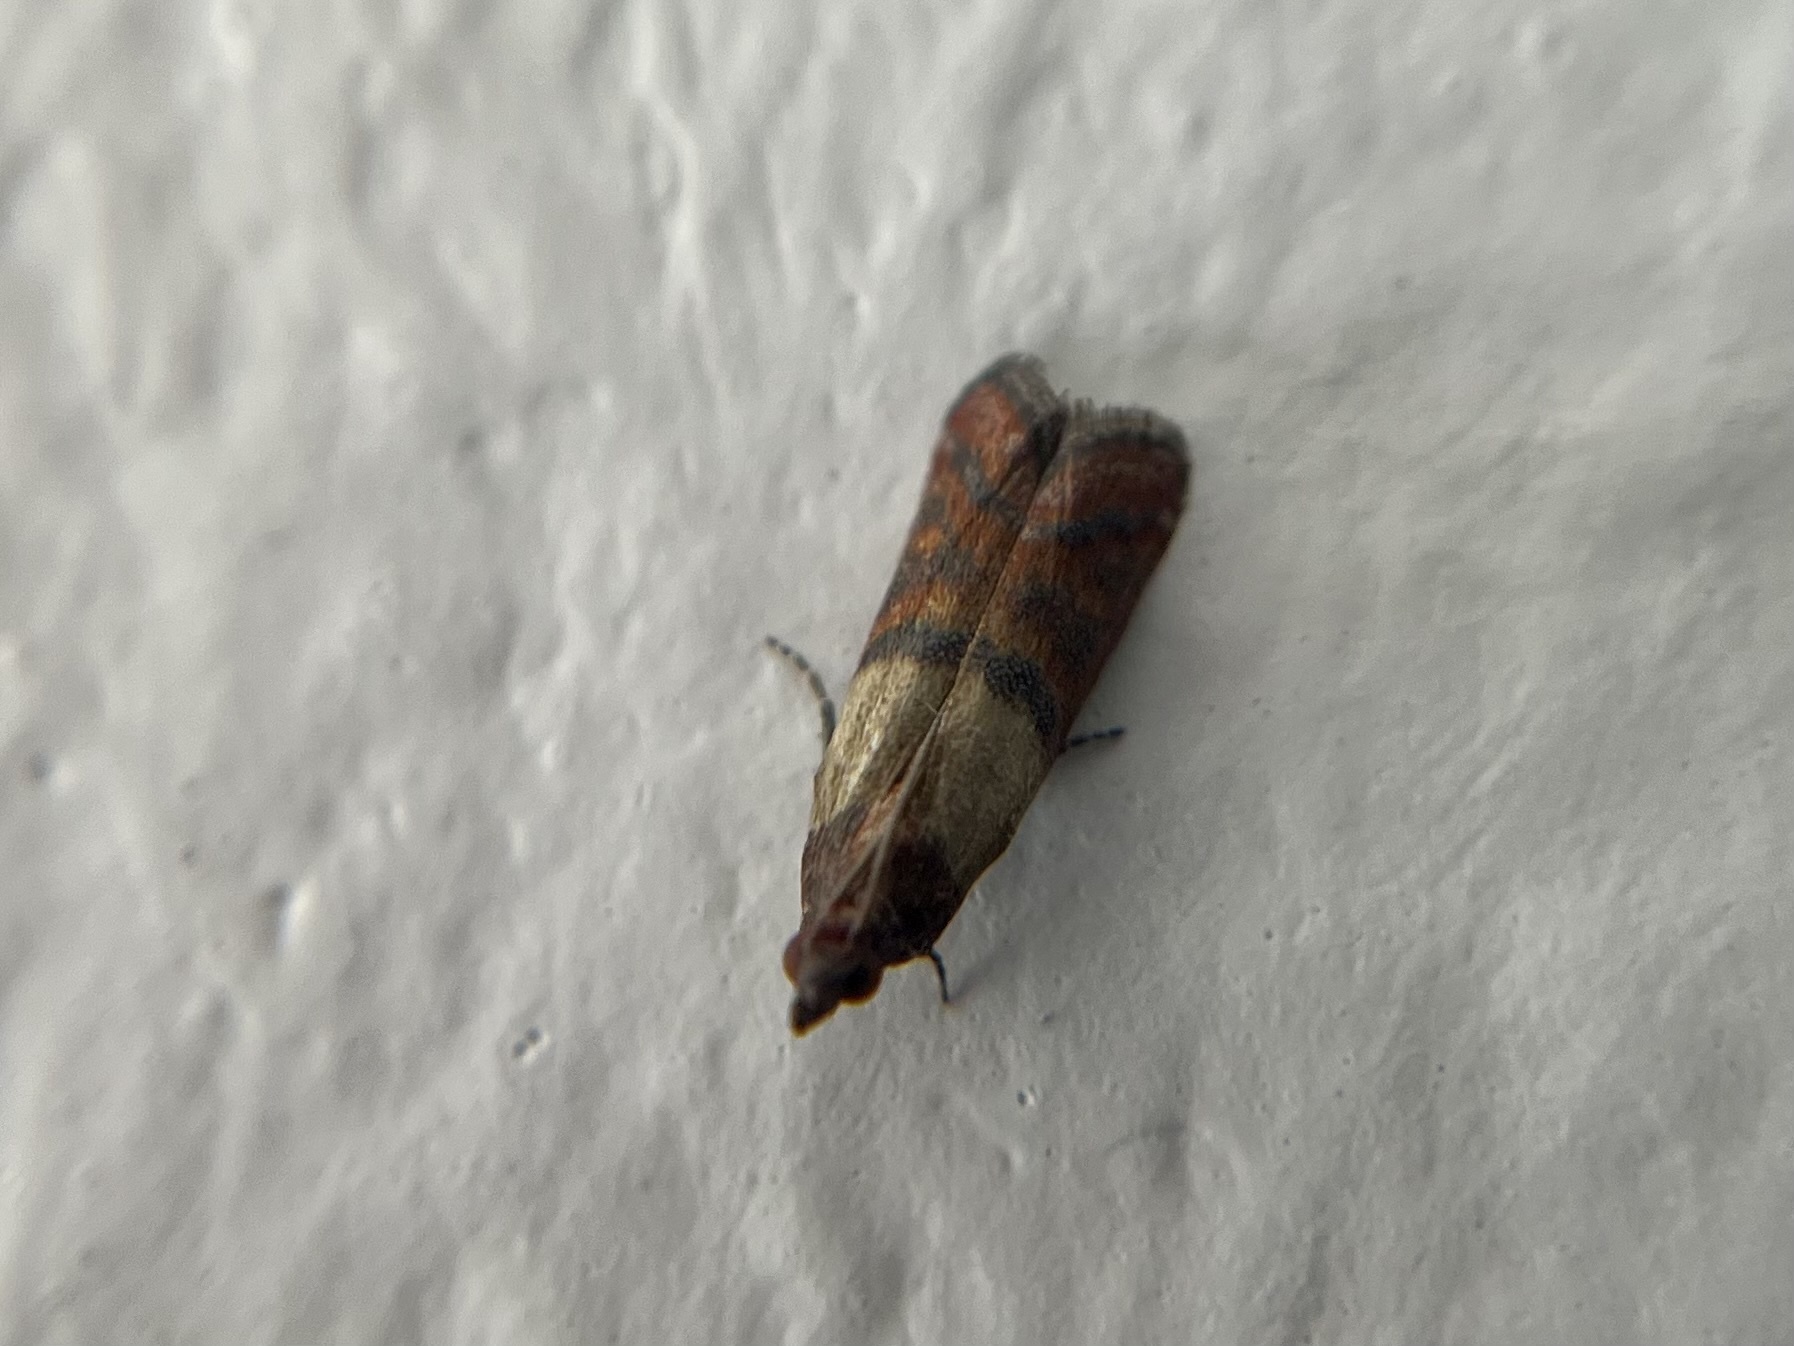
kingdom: Animalia
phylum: Arthropoda
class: Insecta
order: Lepidoptera
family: Pyralidae
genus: Plodia
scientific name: Plodia interpunctella
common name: Indian meal moth
